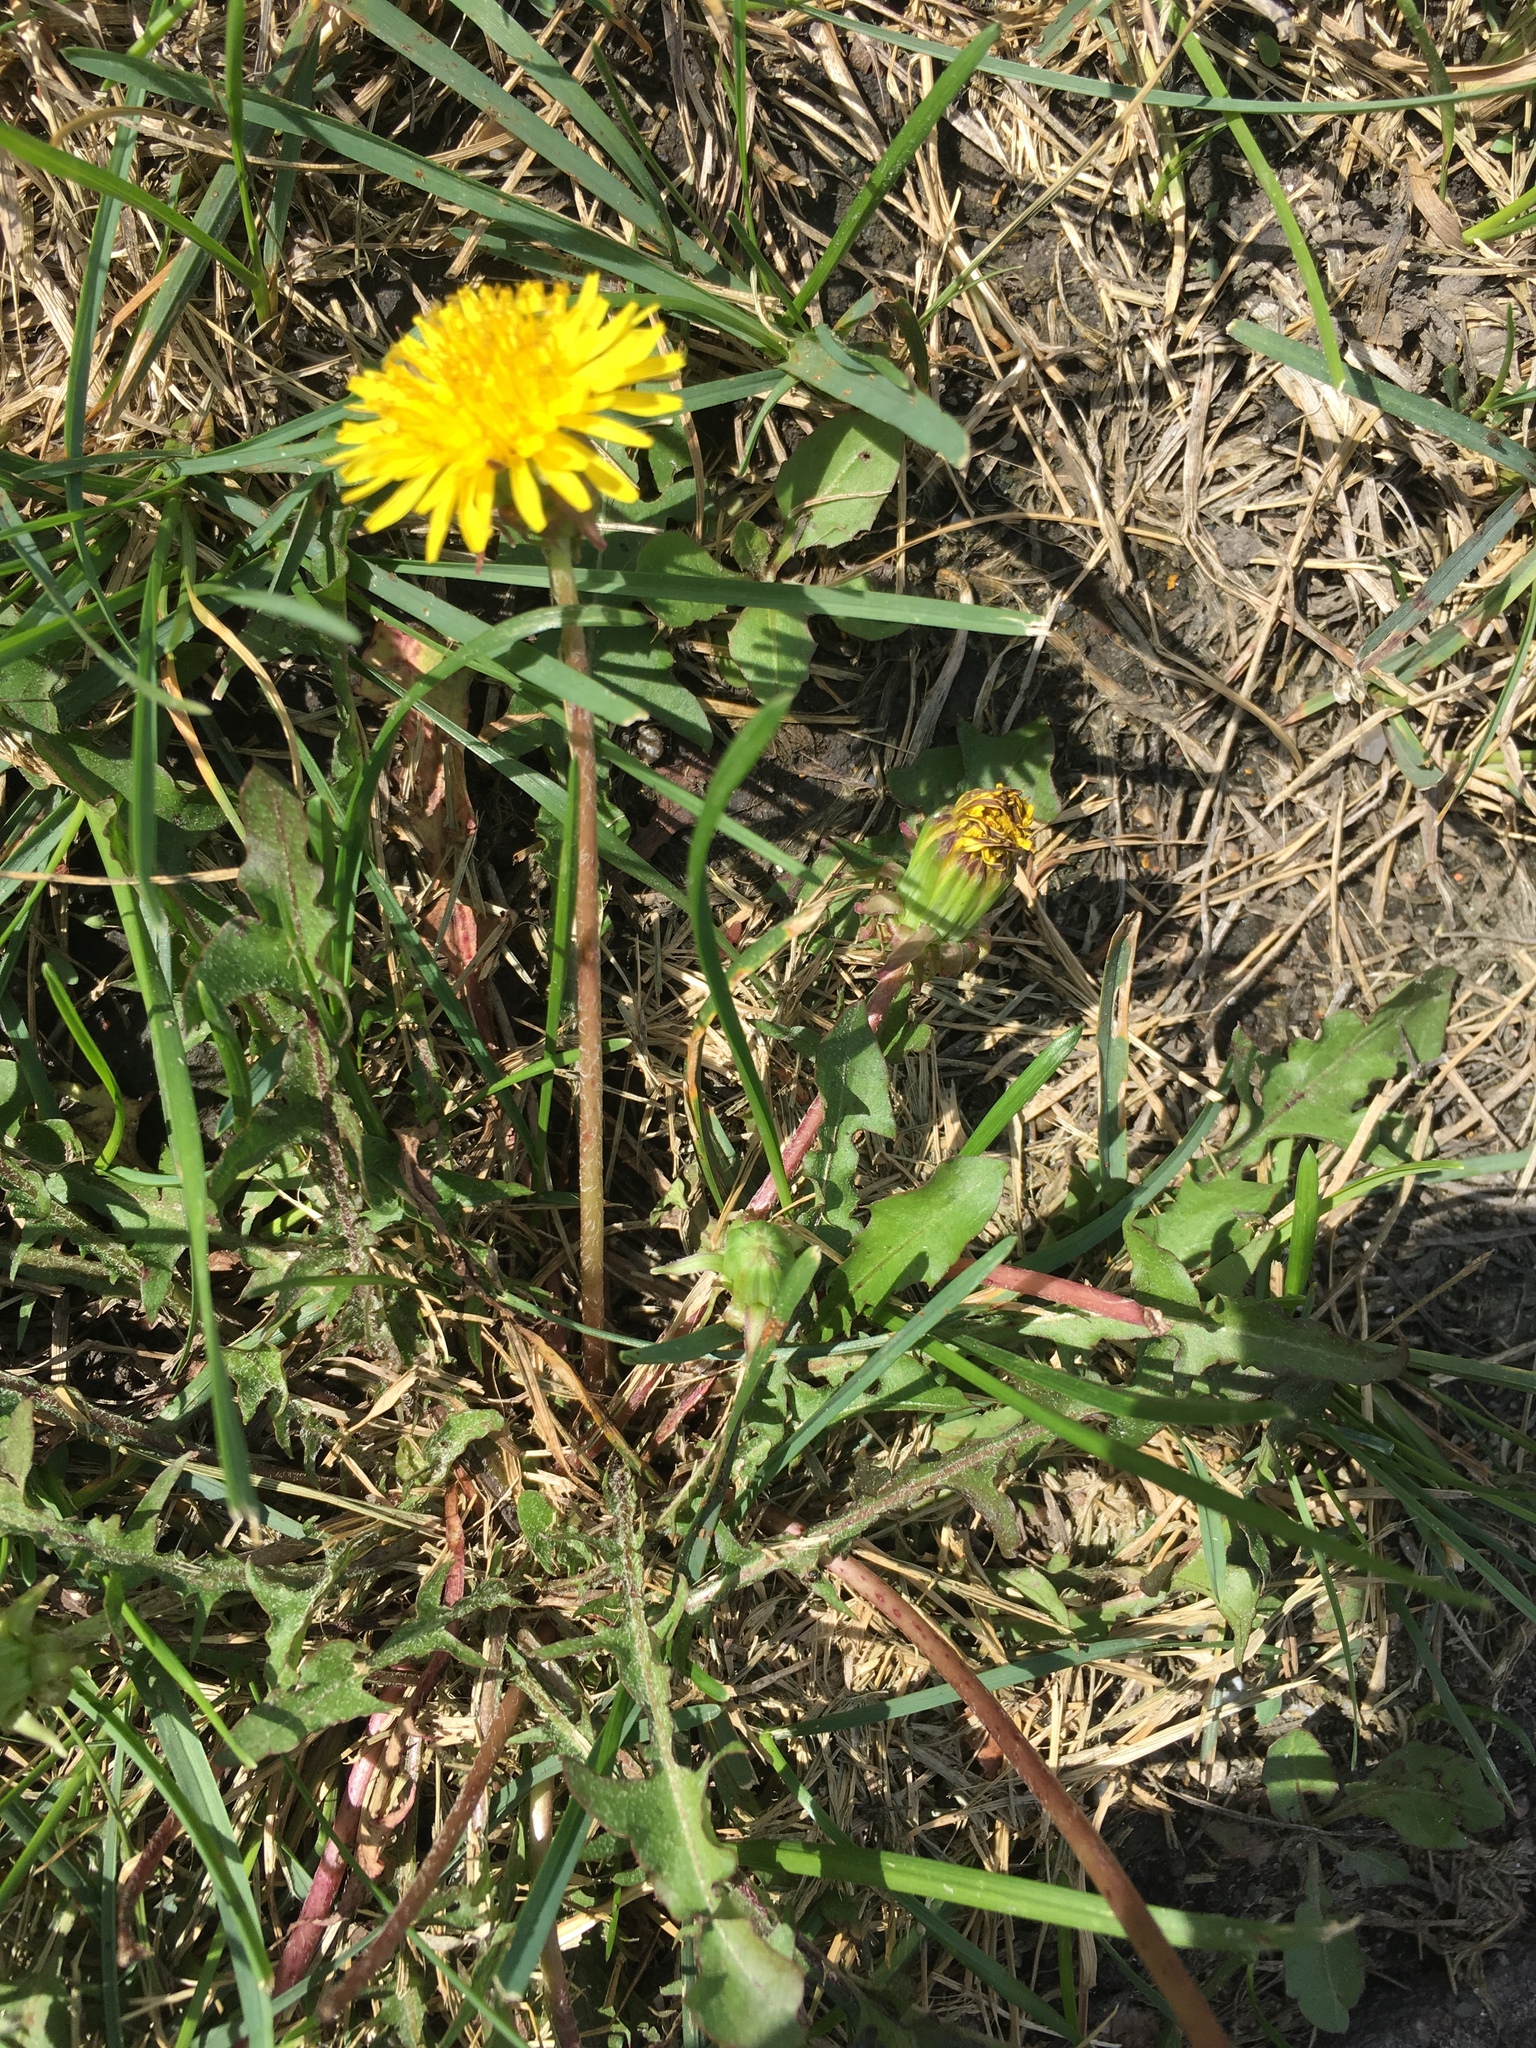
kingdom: Plantae
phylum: Tracheophyta
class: Magnoliopsida
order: Asterales
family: Asteraceae
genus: Taraxacum
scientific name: Taraxacum
